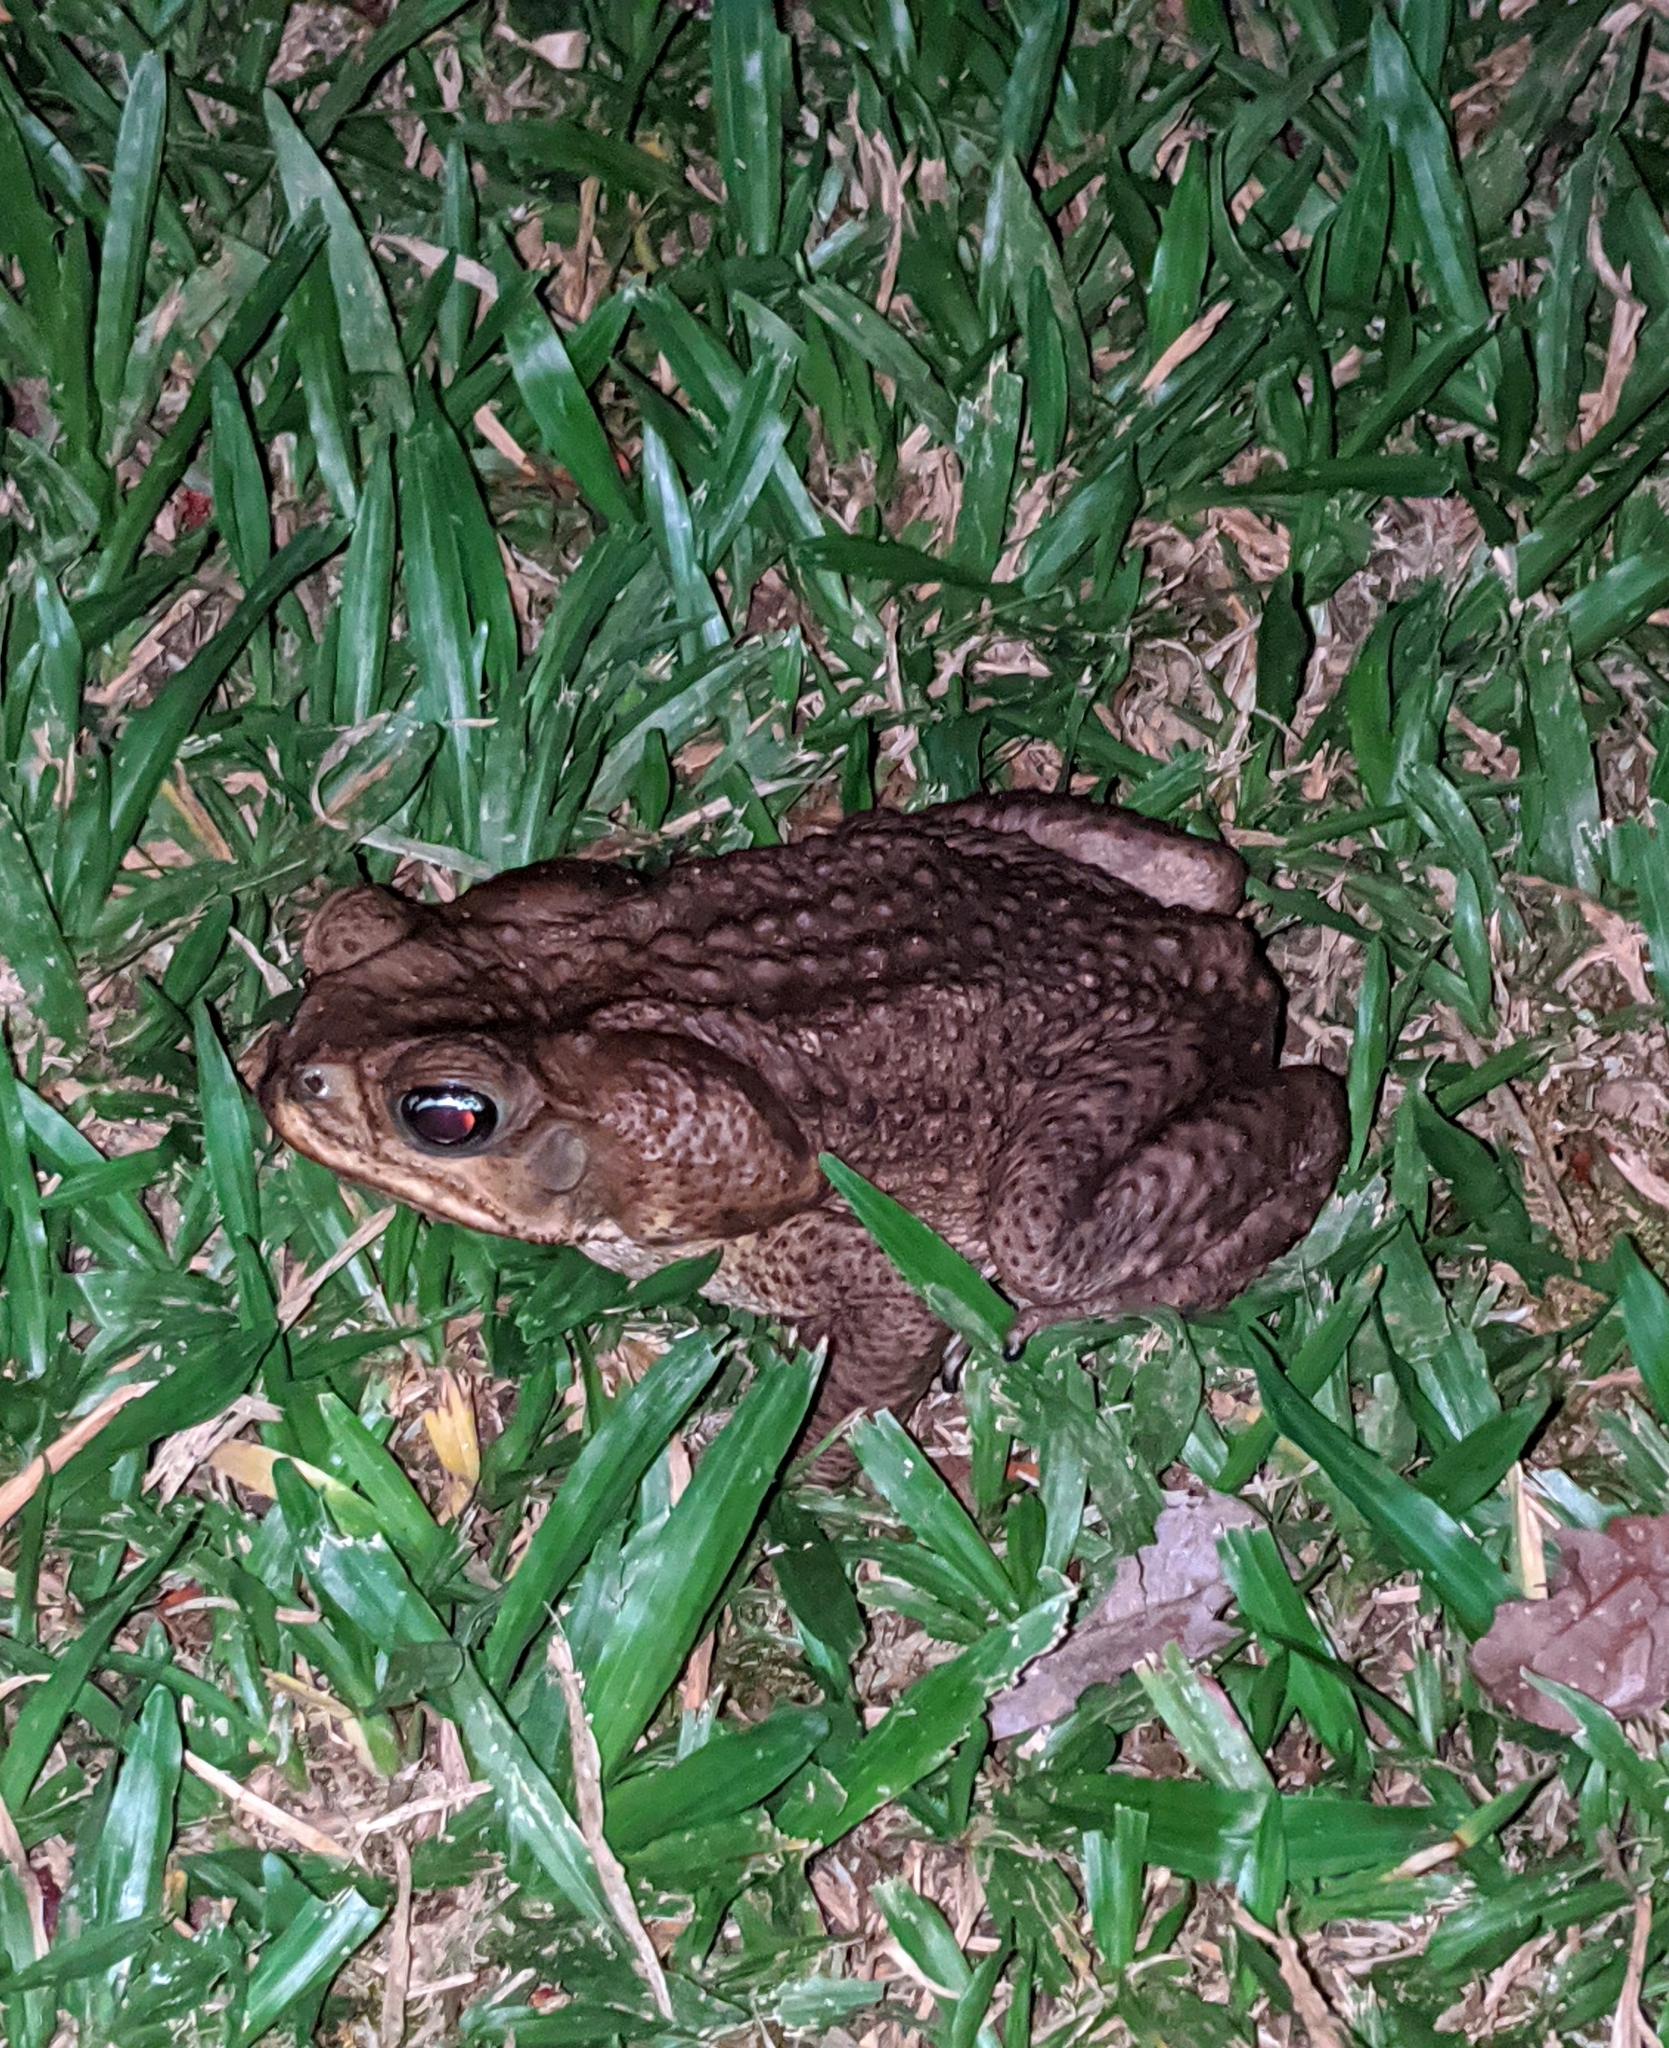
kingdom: Animalia
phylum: Chordata
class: Amphibia
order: Anura
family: Bufonidae
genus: Rhinella
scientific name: Rhinella horribilis
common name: Mesoamerican cane toad
